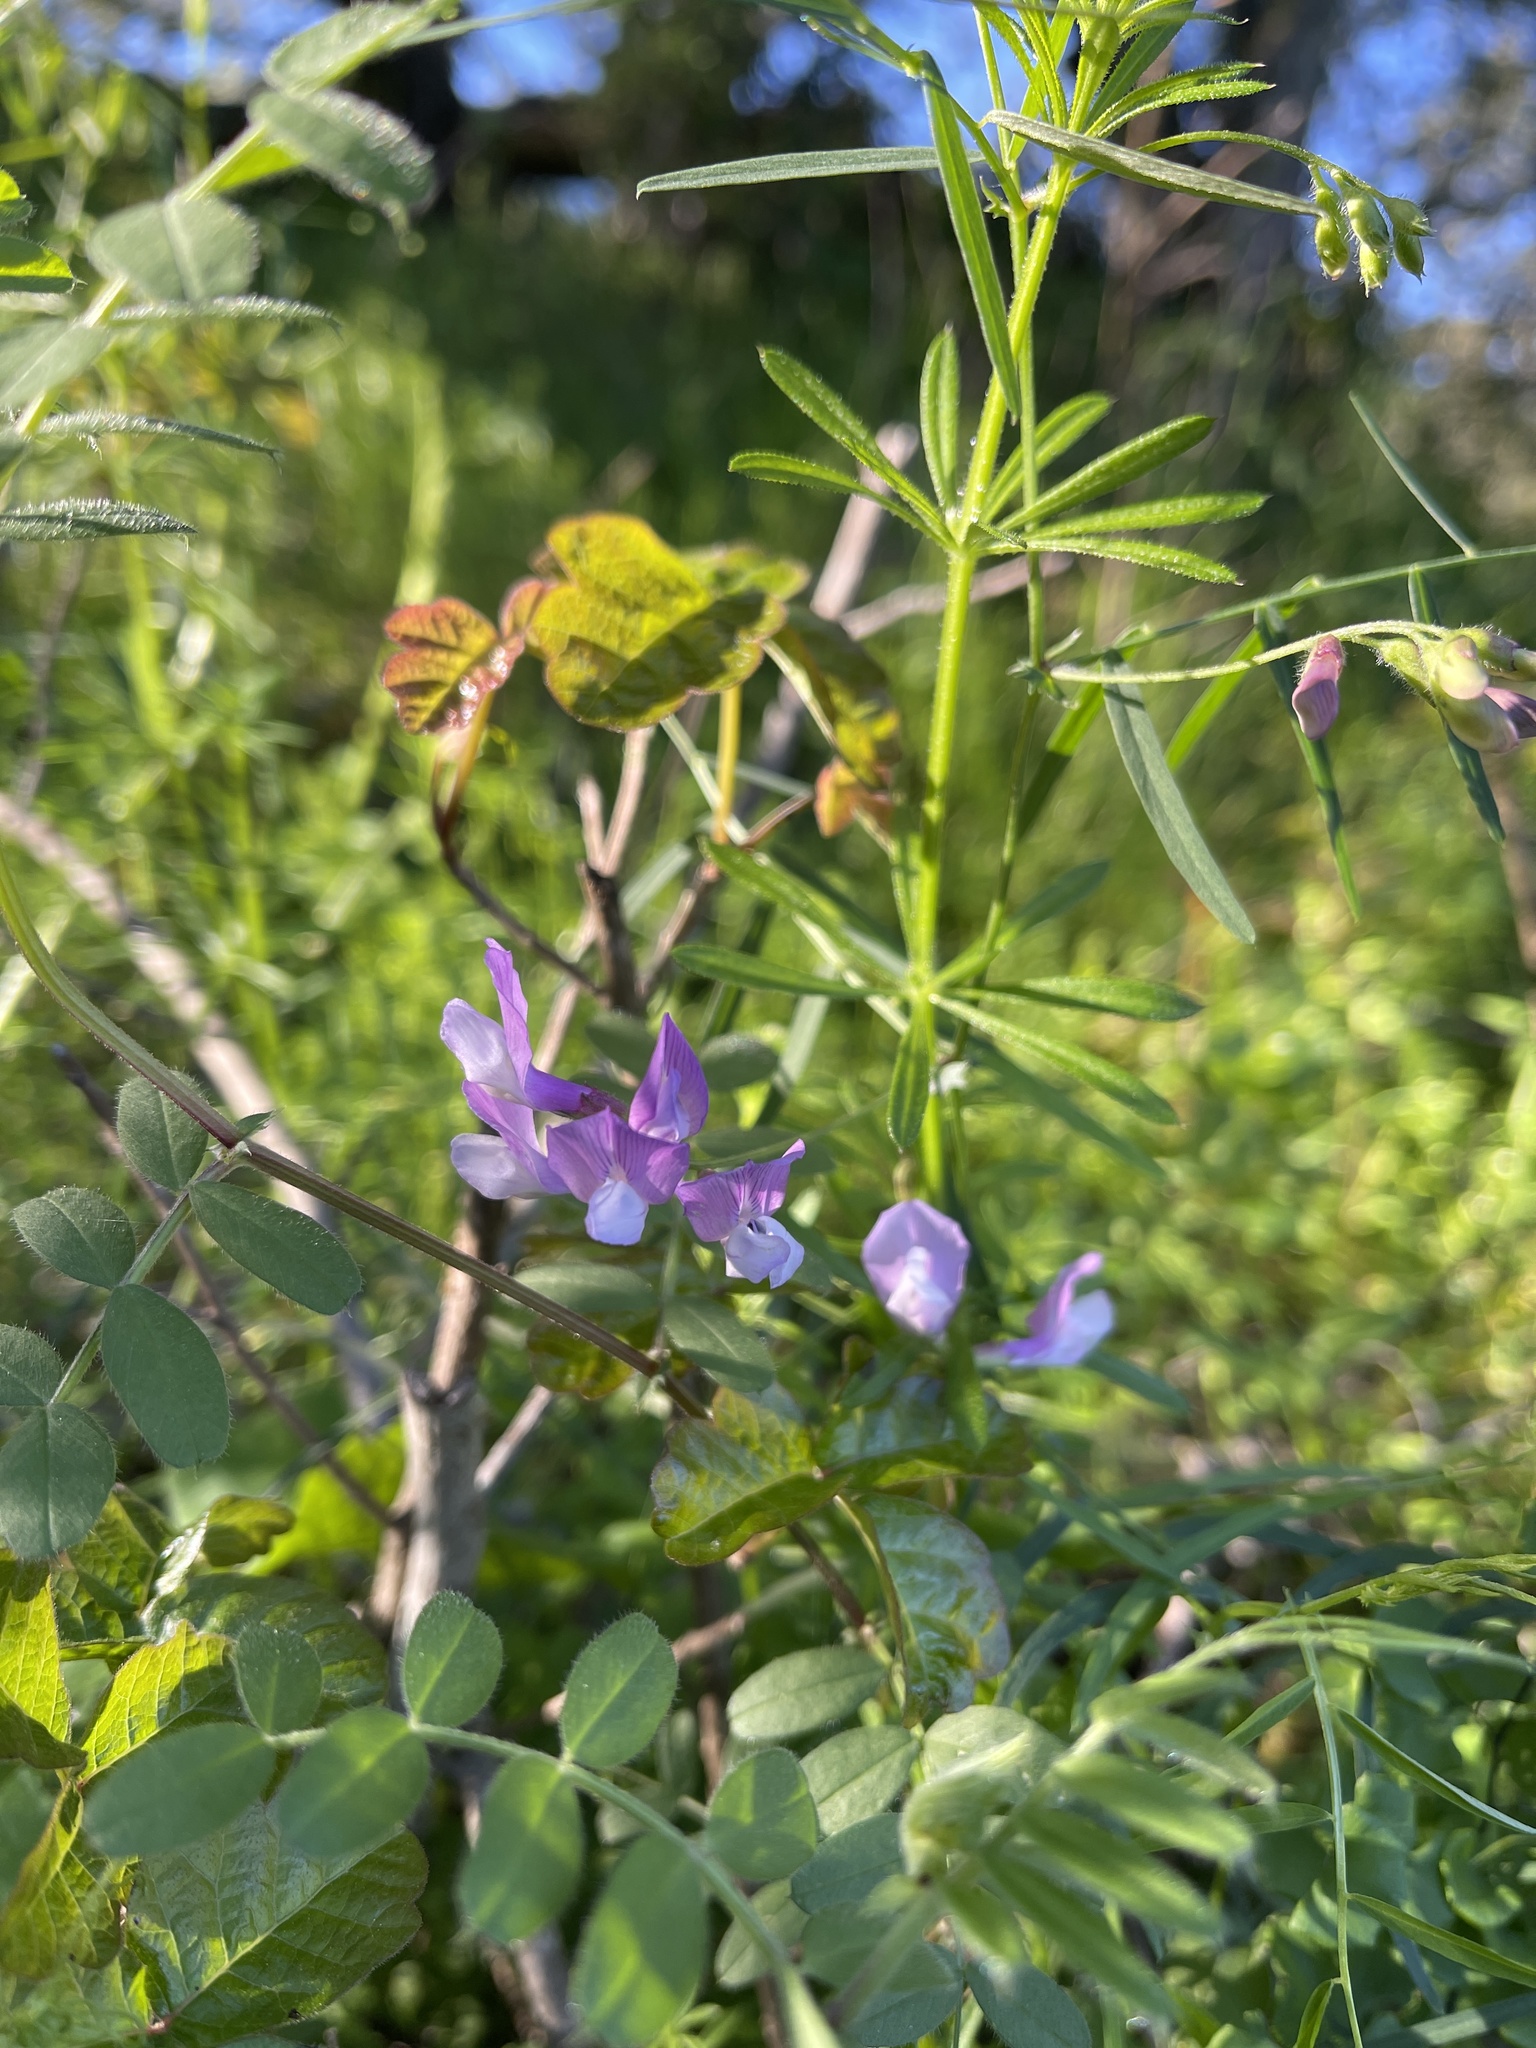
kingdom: Plantae
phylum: Tracheophyta
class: Magnoliopsida
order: Fabales
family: Fabaceae
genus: Lathyrus
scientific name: Lathyrus vestitus
